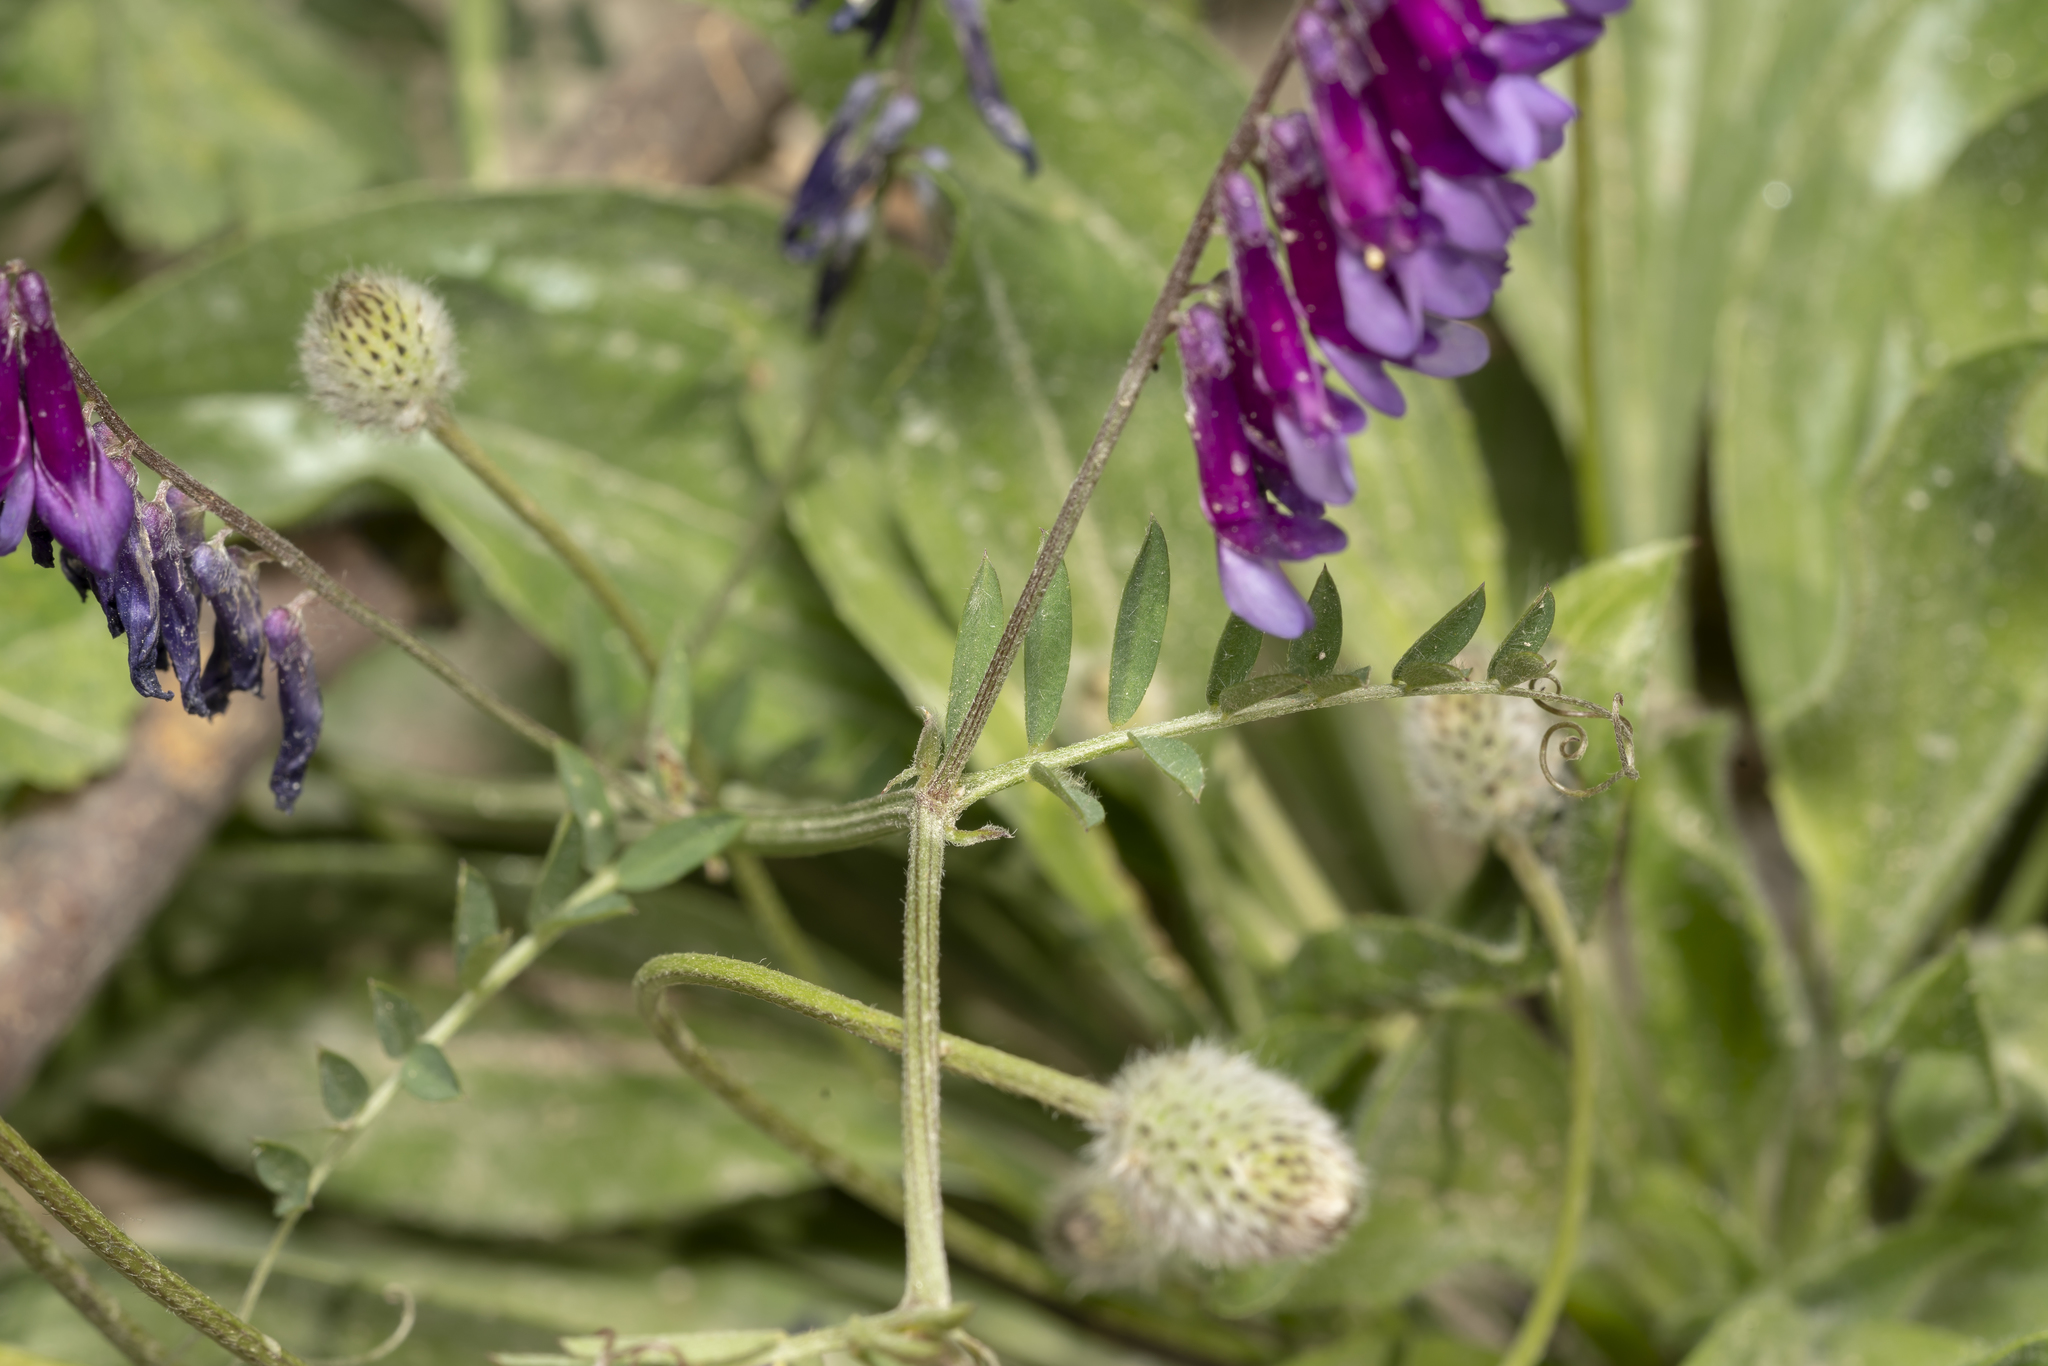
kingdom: Plantae
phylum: Tracheophyta
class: Magnoliopsida
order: Fabales
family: Fabaceae
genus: Vicia
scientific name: Vicia eriocarpa
